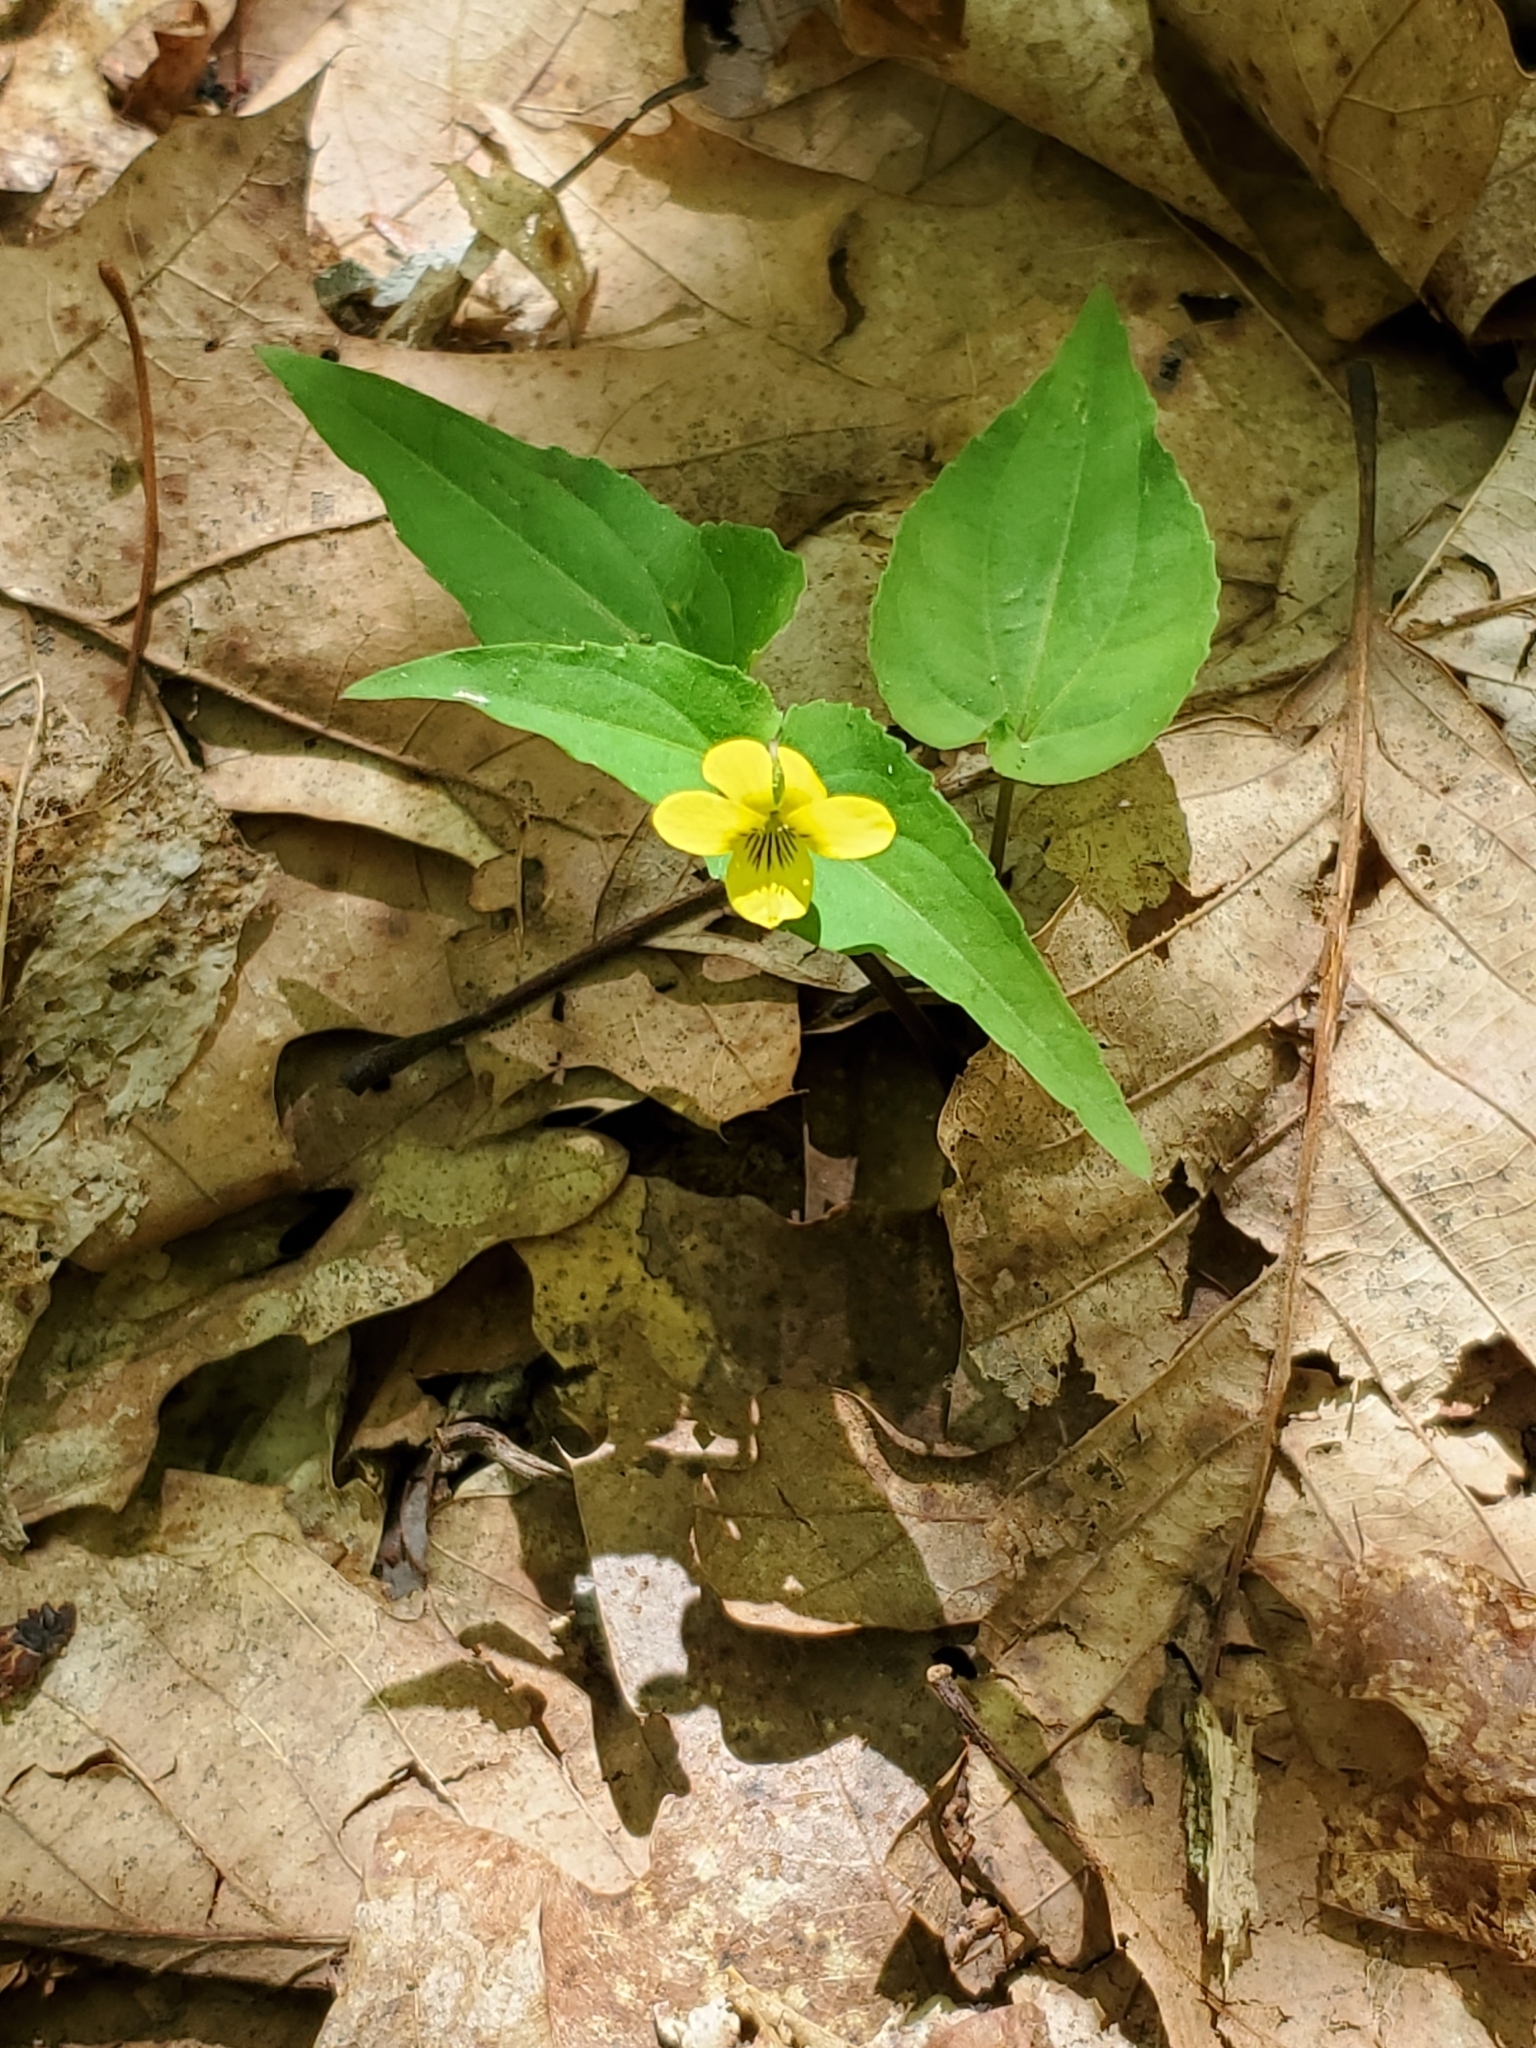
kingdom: Plantae
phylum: Tracheophyta
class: Magnoliopsida
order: Malpighiales
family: Violaceae
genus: Viola
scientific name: Viola hastata
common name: Spear-leaf violet
